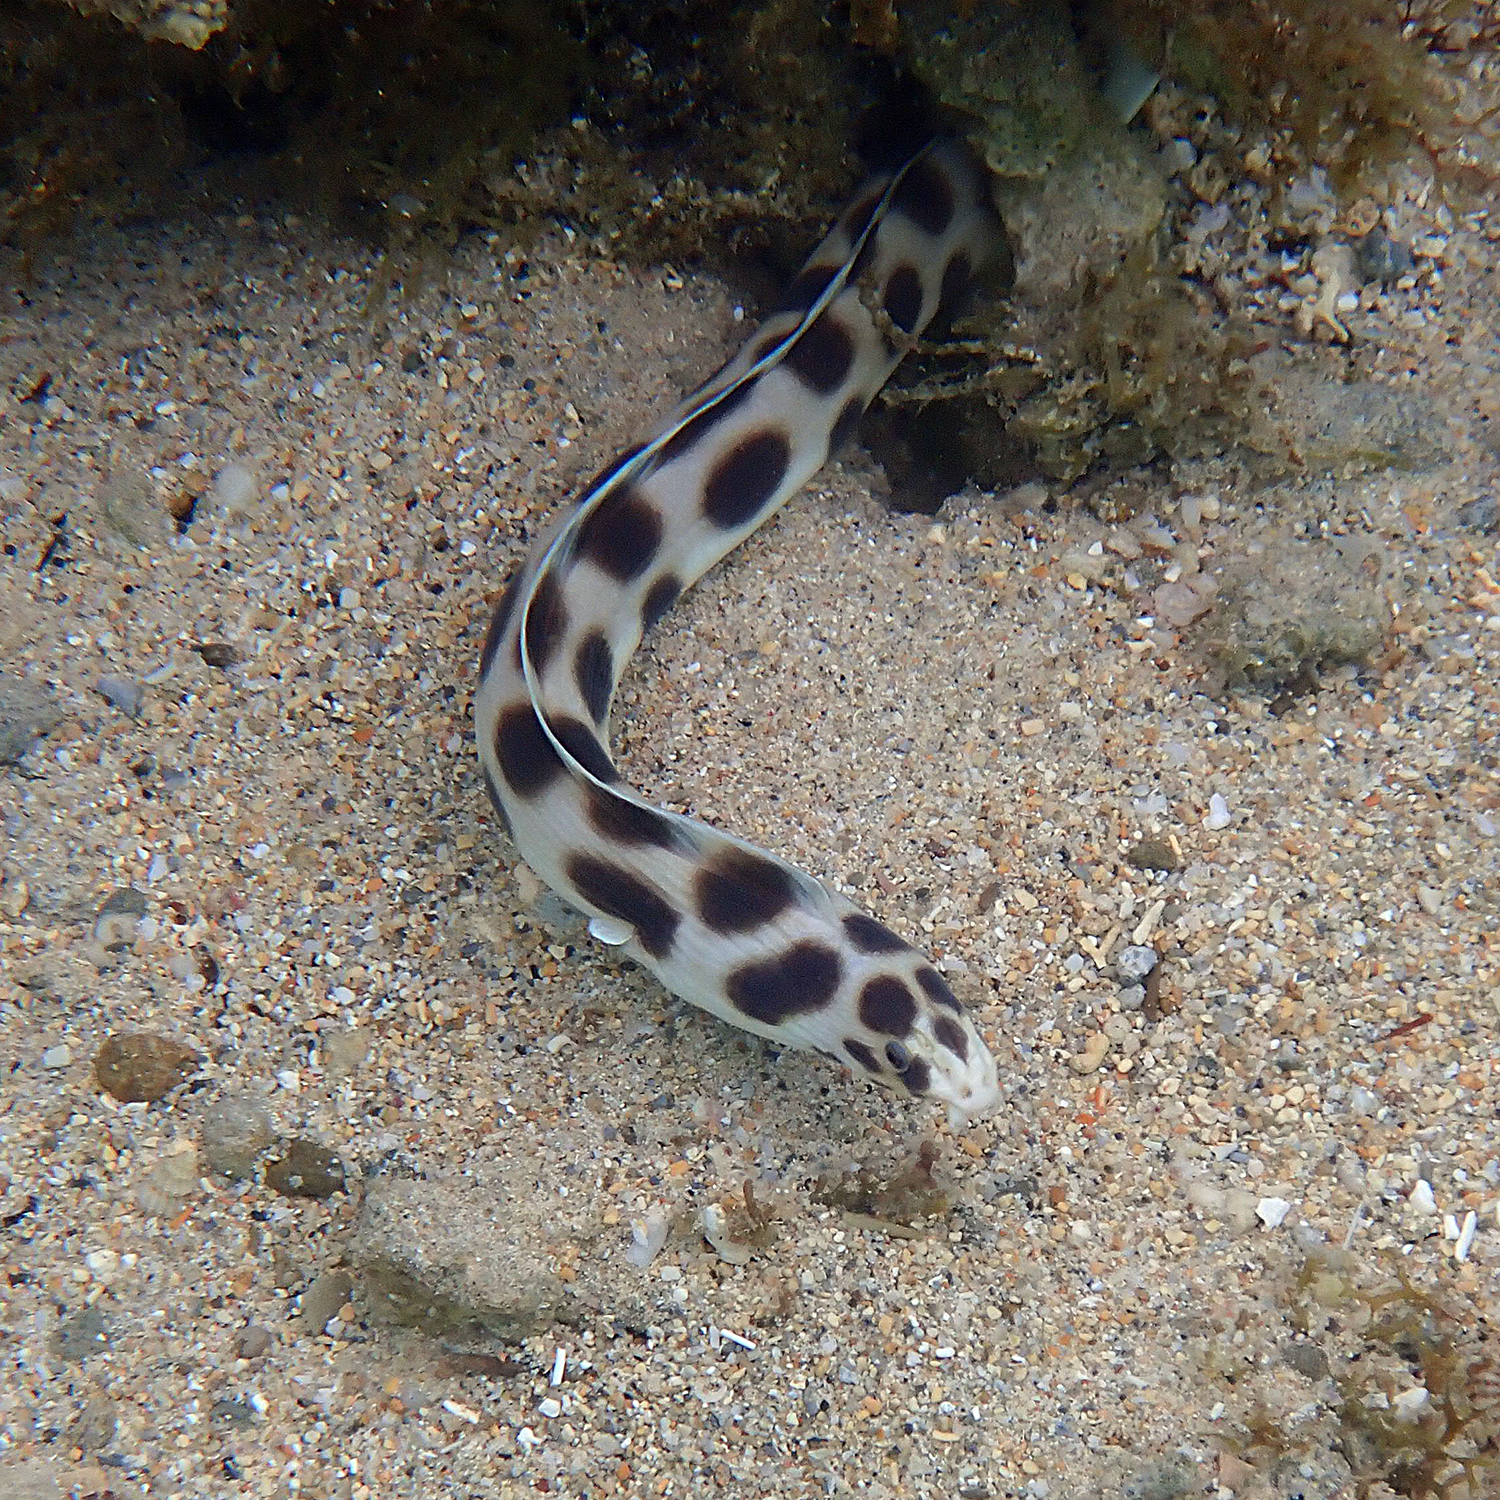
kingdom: Animalia
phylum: Chordata
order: Anguilliformes
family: Ophichthidae
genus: Myrichthys
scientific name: Myrichthys maculosus
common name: Spotted snake eel
